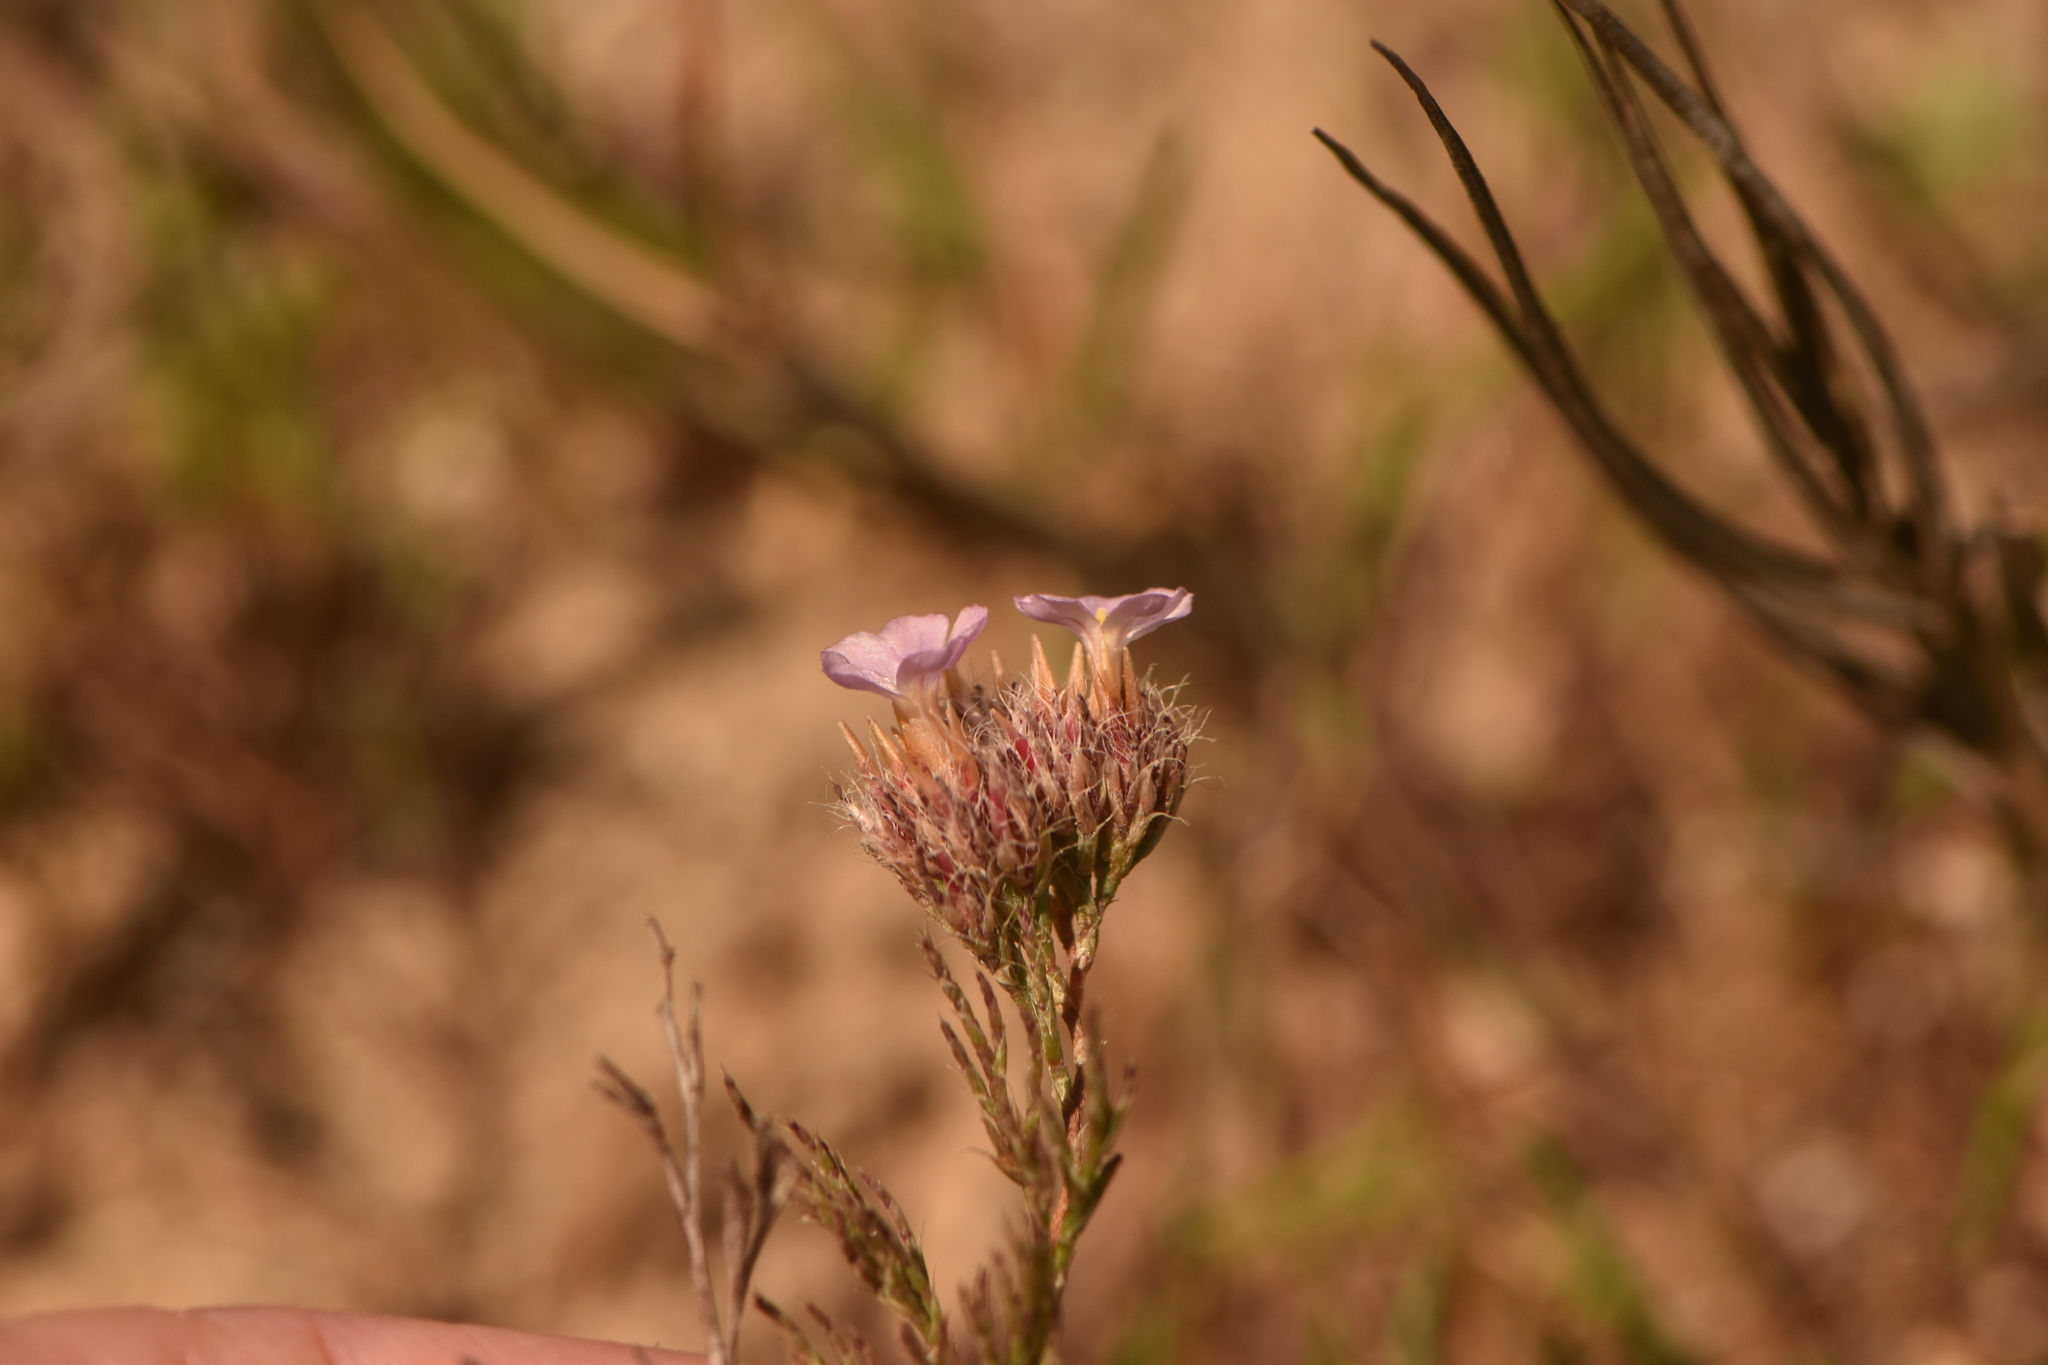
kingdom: Plantae
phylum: Tracheophyta
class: Magnoliopsida
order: Caryophyllales
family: Plumbaginaceae
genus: Myriolimon
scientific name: Myriolimon ferulaceum
